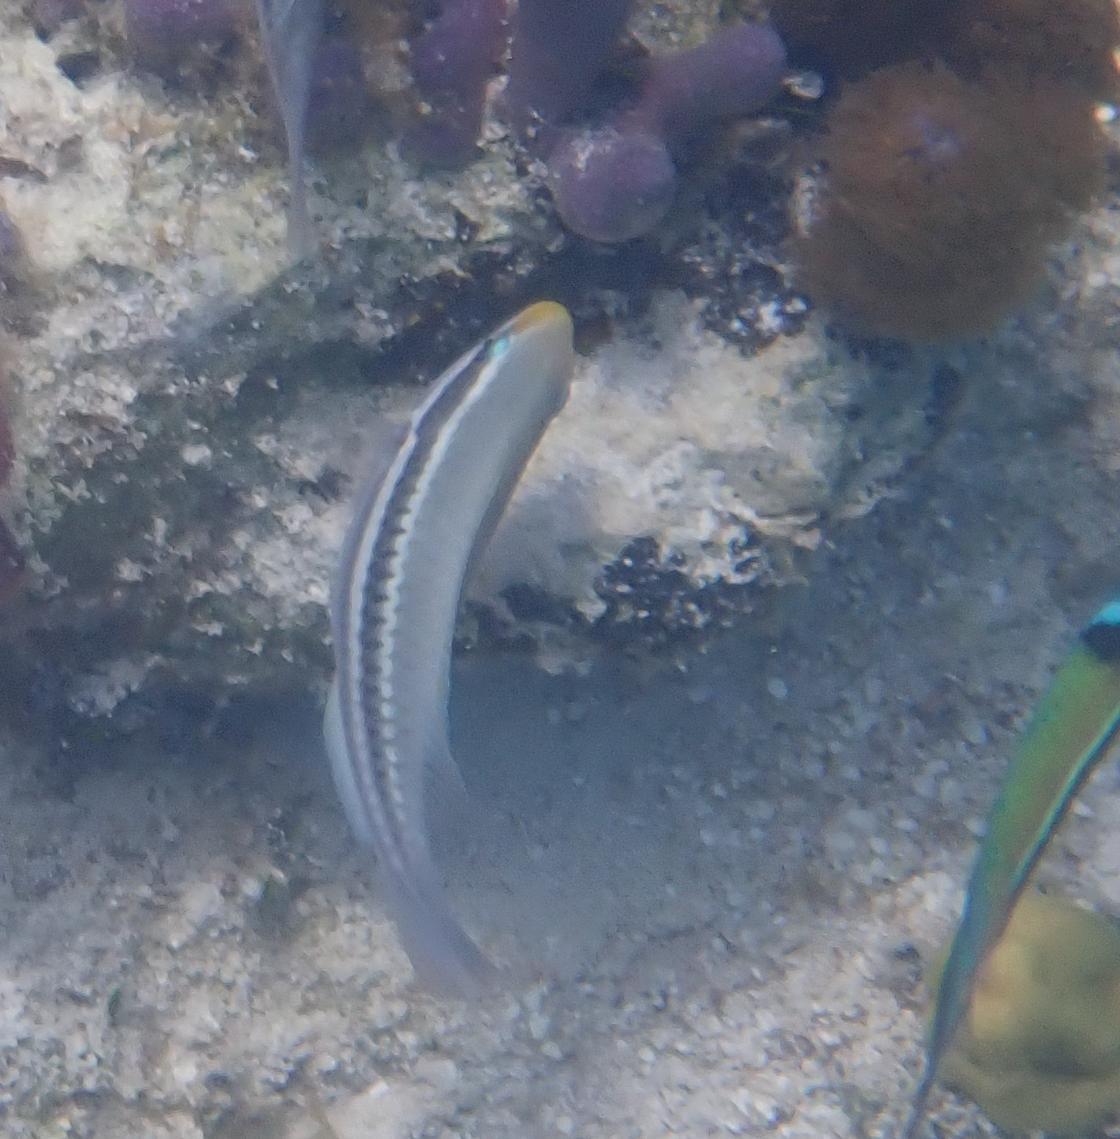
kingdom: Animalia
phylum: Chordata
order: Perciformes
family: Scaridae
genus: Scarus
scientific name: Scarus iseri
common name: Striped parrotfish
